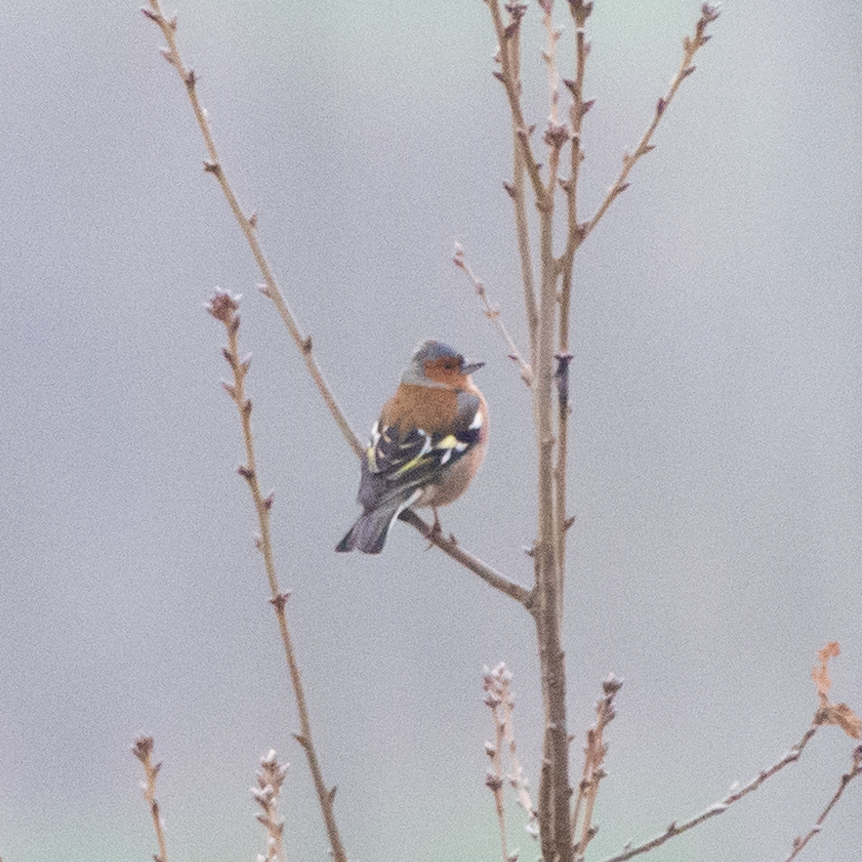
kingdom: Animalia
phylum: Chordata
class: Aves
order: Passeriformes
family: Fringillidae
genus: Fringilla
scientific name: Fringilla coelebs
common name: Common chaffinch
